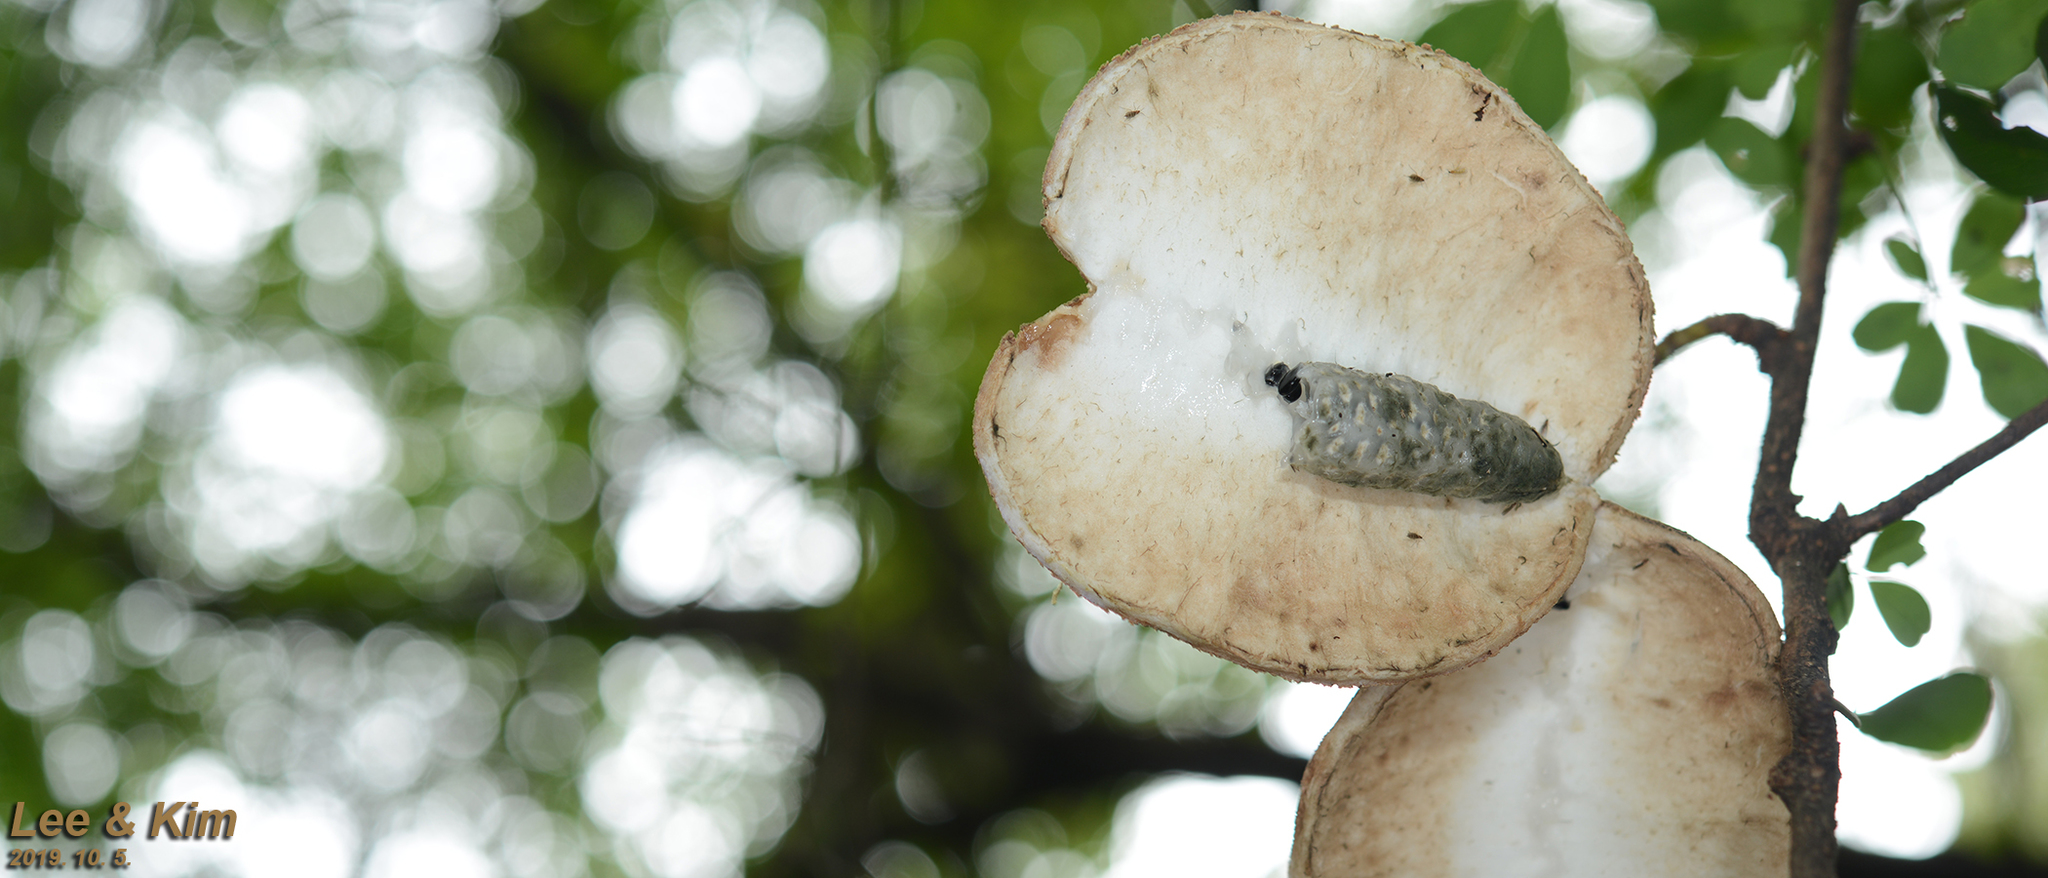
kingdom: Plantae
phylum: Tracheophyta
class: Magnoliopsida
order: Ranunculales
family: Lardizabalaceae
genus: Akebia
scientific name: Akebia quinata
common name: Five-leaf akebia
